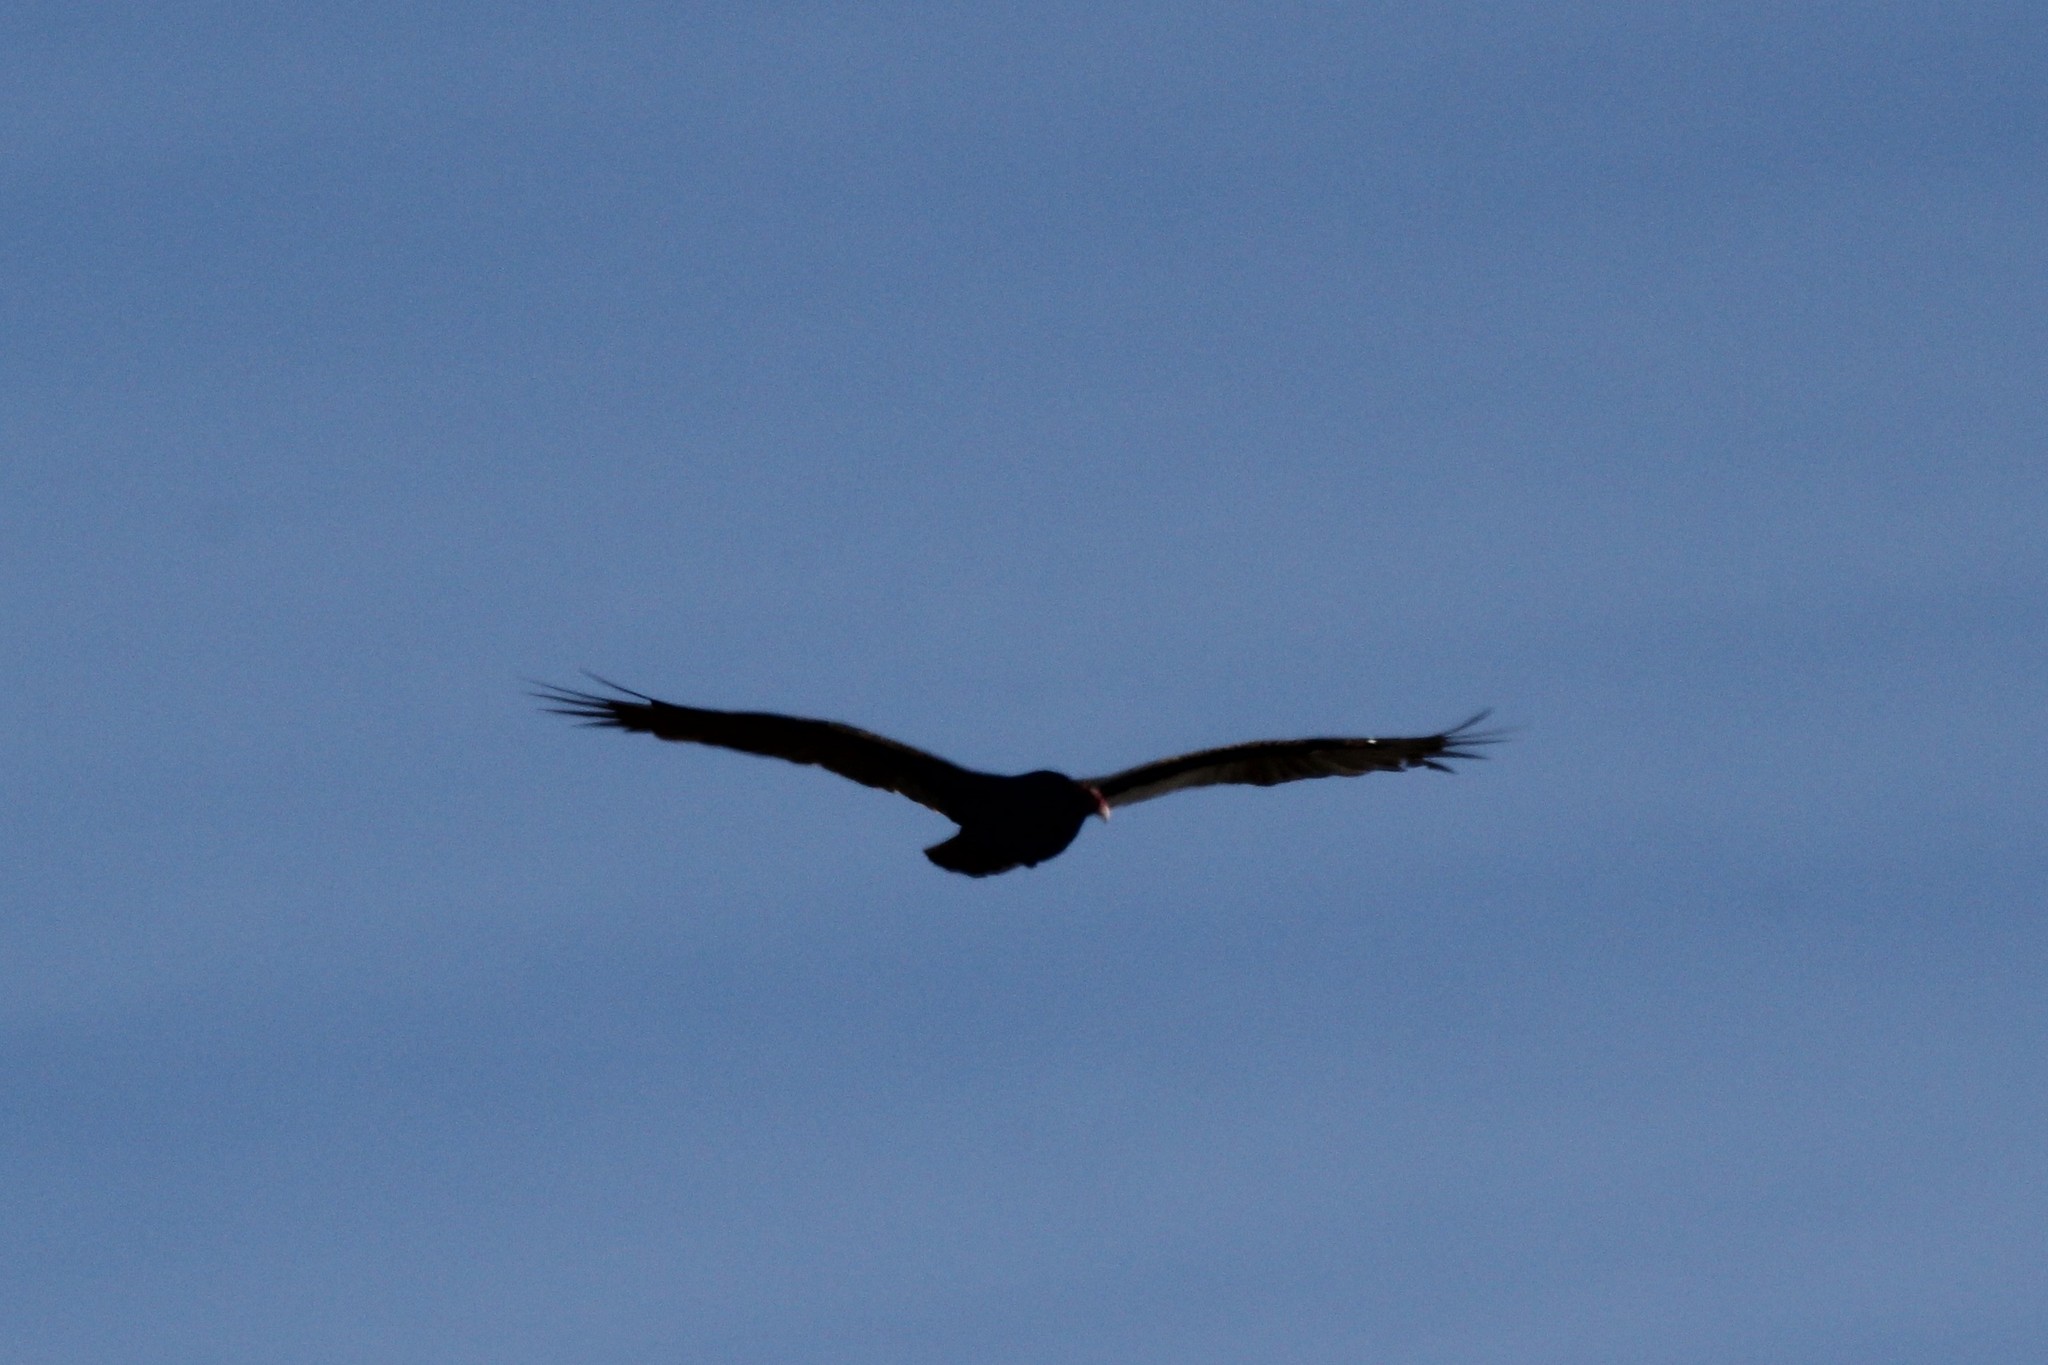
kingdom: Animalia
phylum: Chordata
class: Aves
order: Accipitriformes
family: Cathartidae
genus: Cathartes
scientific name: Cathartes aura
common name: Turkey vulture
